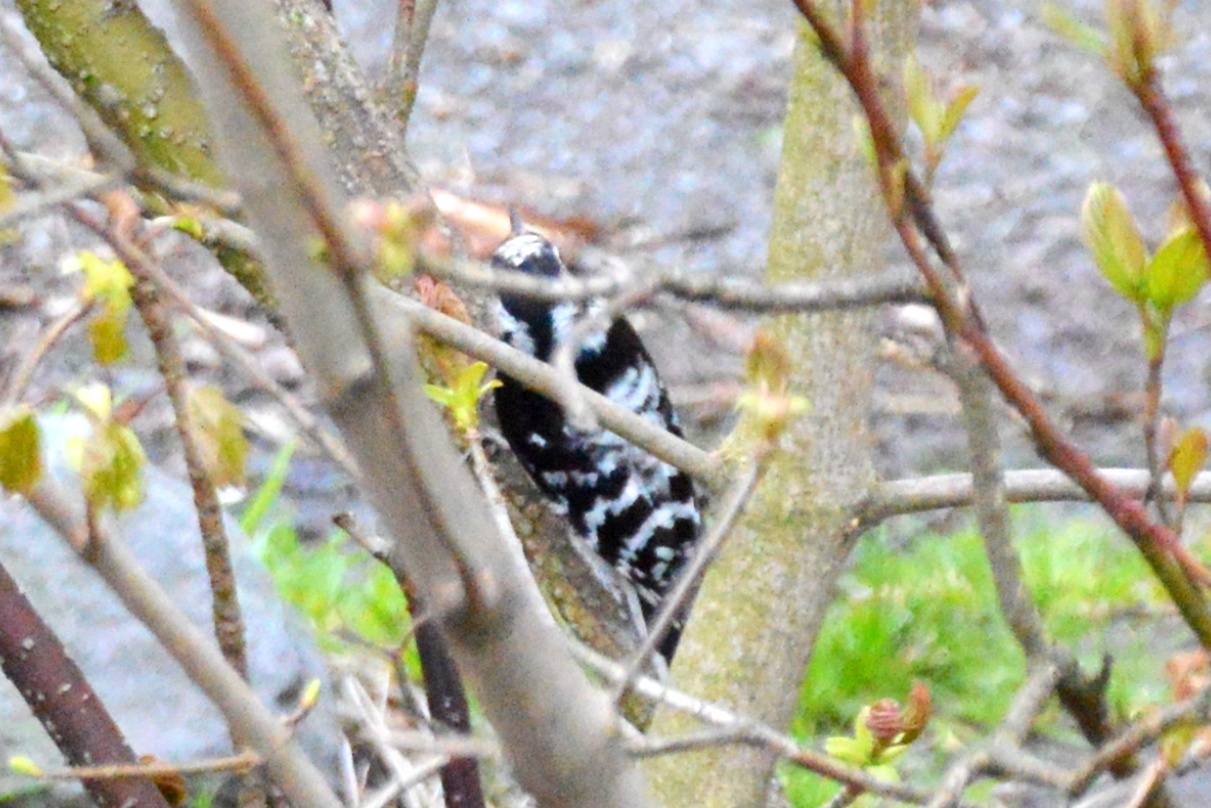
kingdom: Animalia
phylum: Chordata
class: Aves
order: Piciformes
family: Picidae
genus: Dryobates
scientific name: Dryobates minor
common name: Lesser spotted woodpecker
